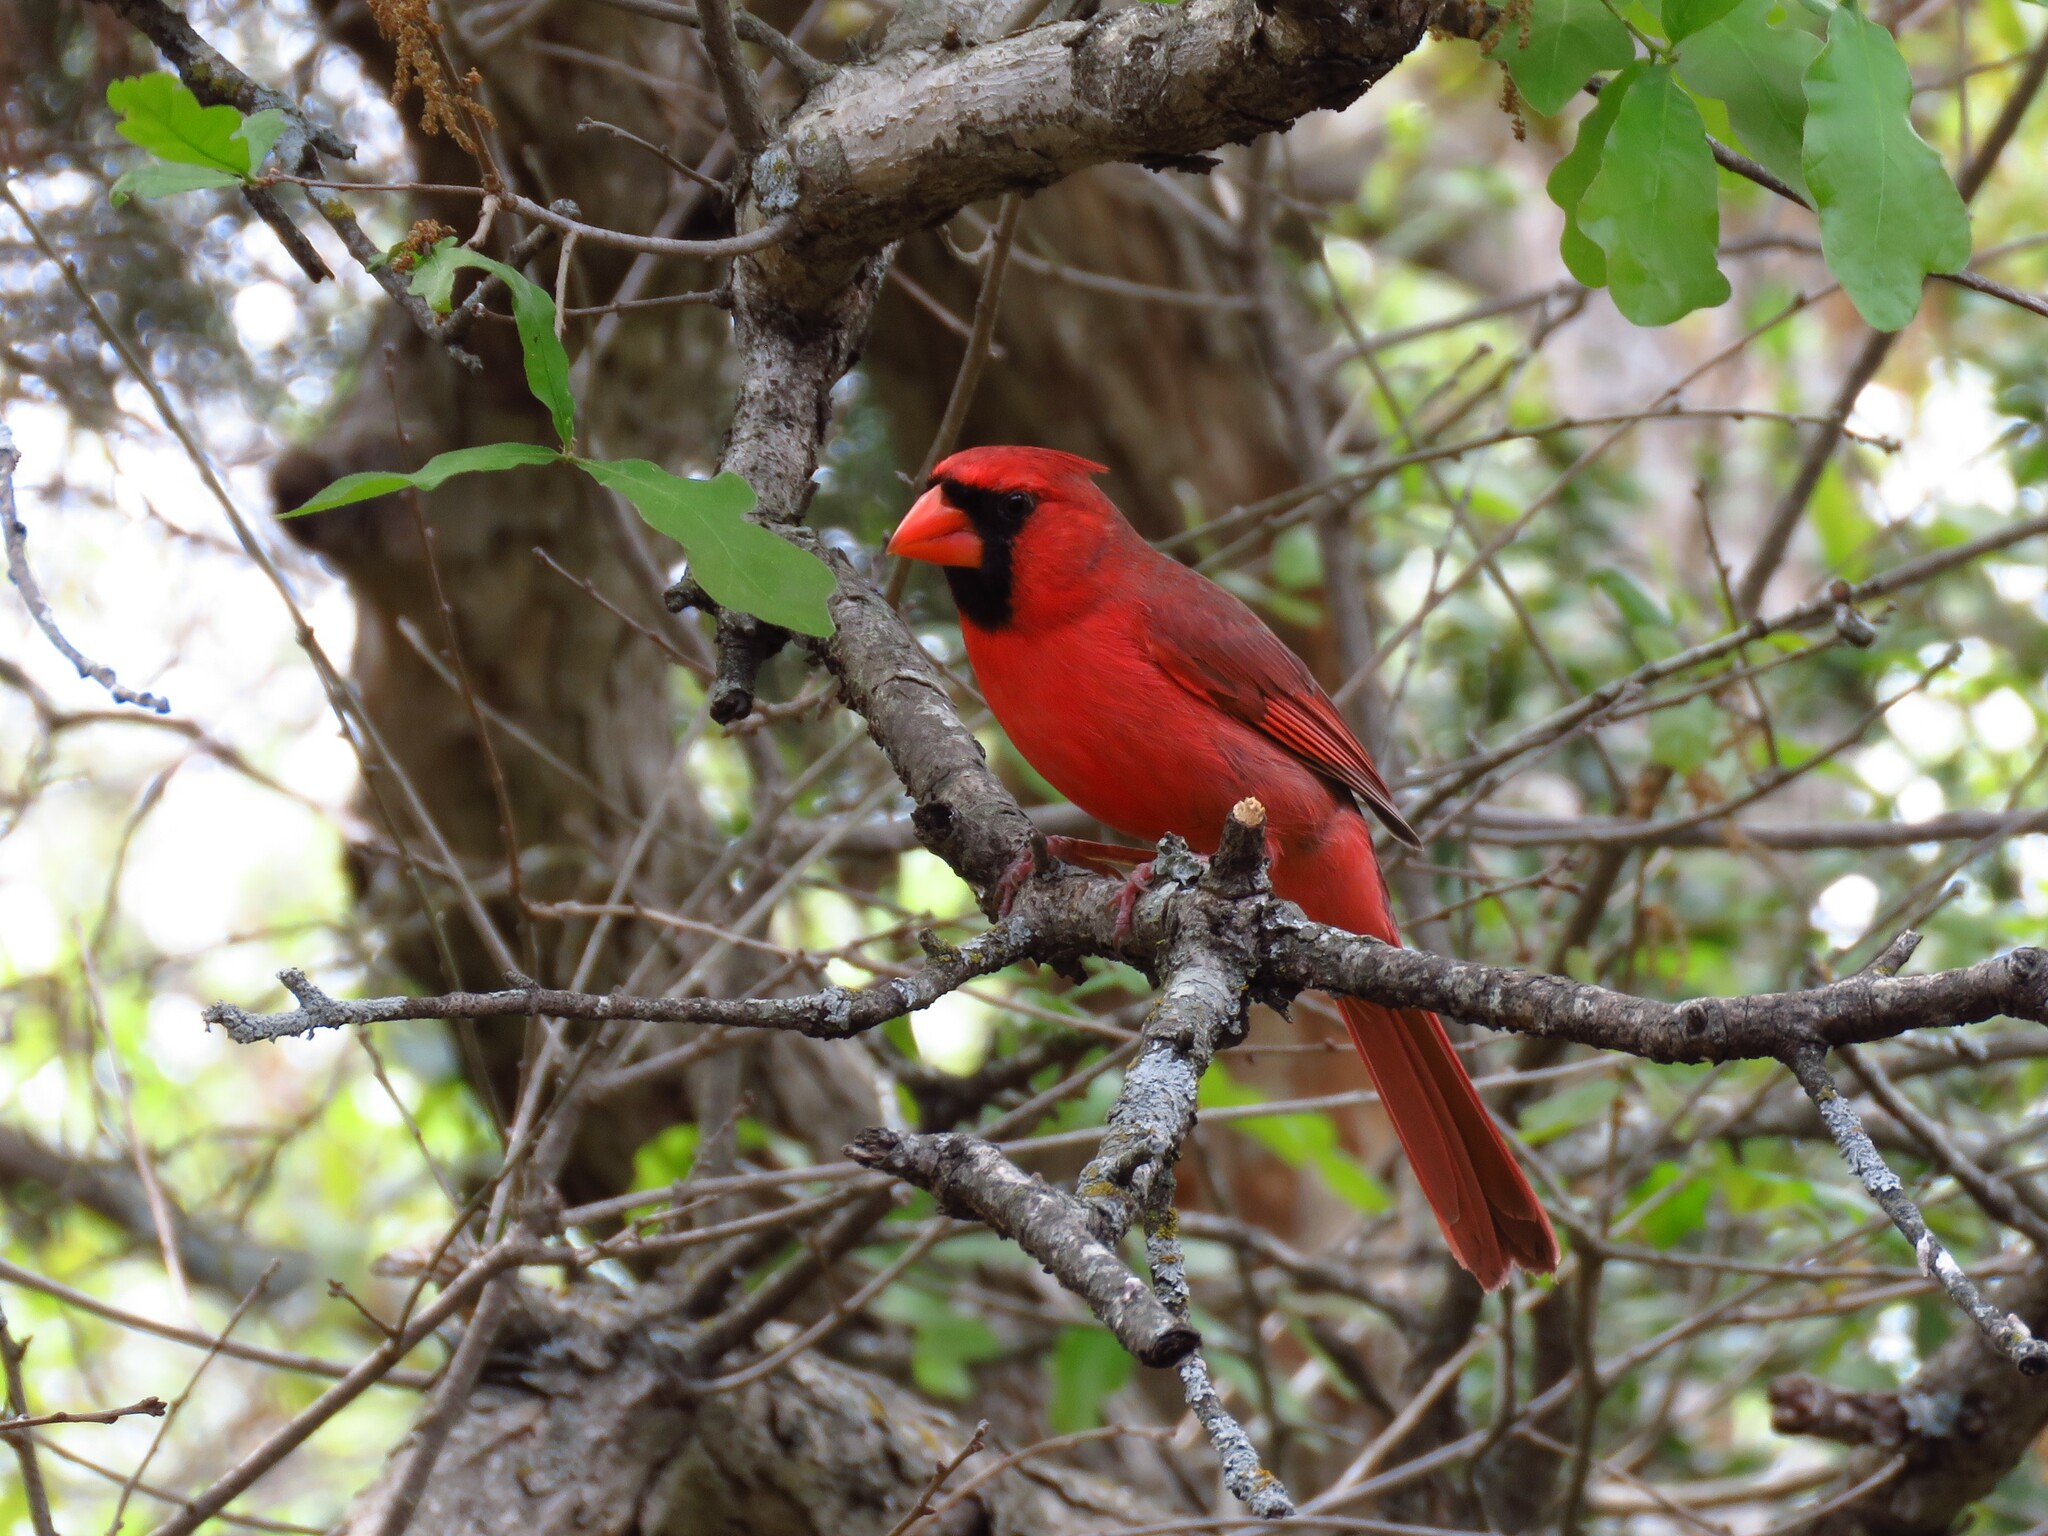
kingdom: Animalia
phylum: Chordata
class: Aves
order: Passeriformes
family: Cardinalidae
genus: Cardinalis
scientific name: Cardinalis cardinalis
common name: Northern cardinal
